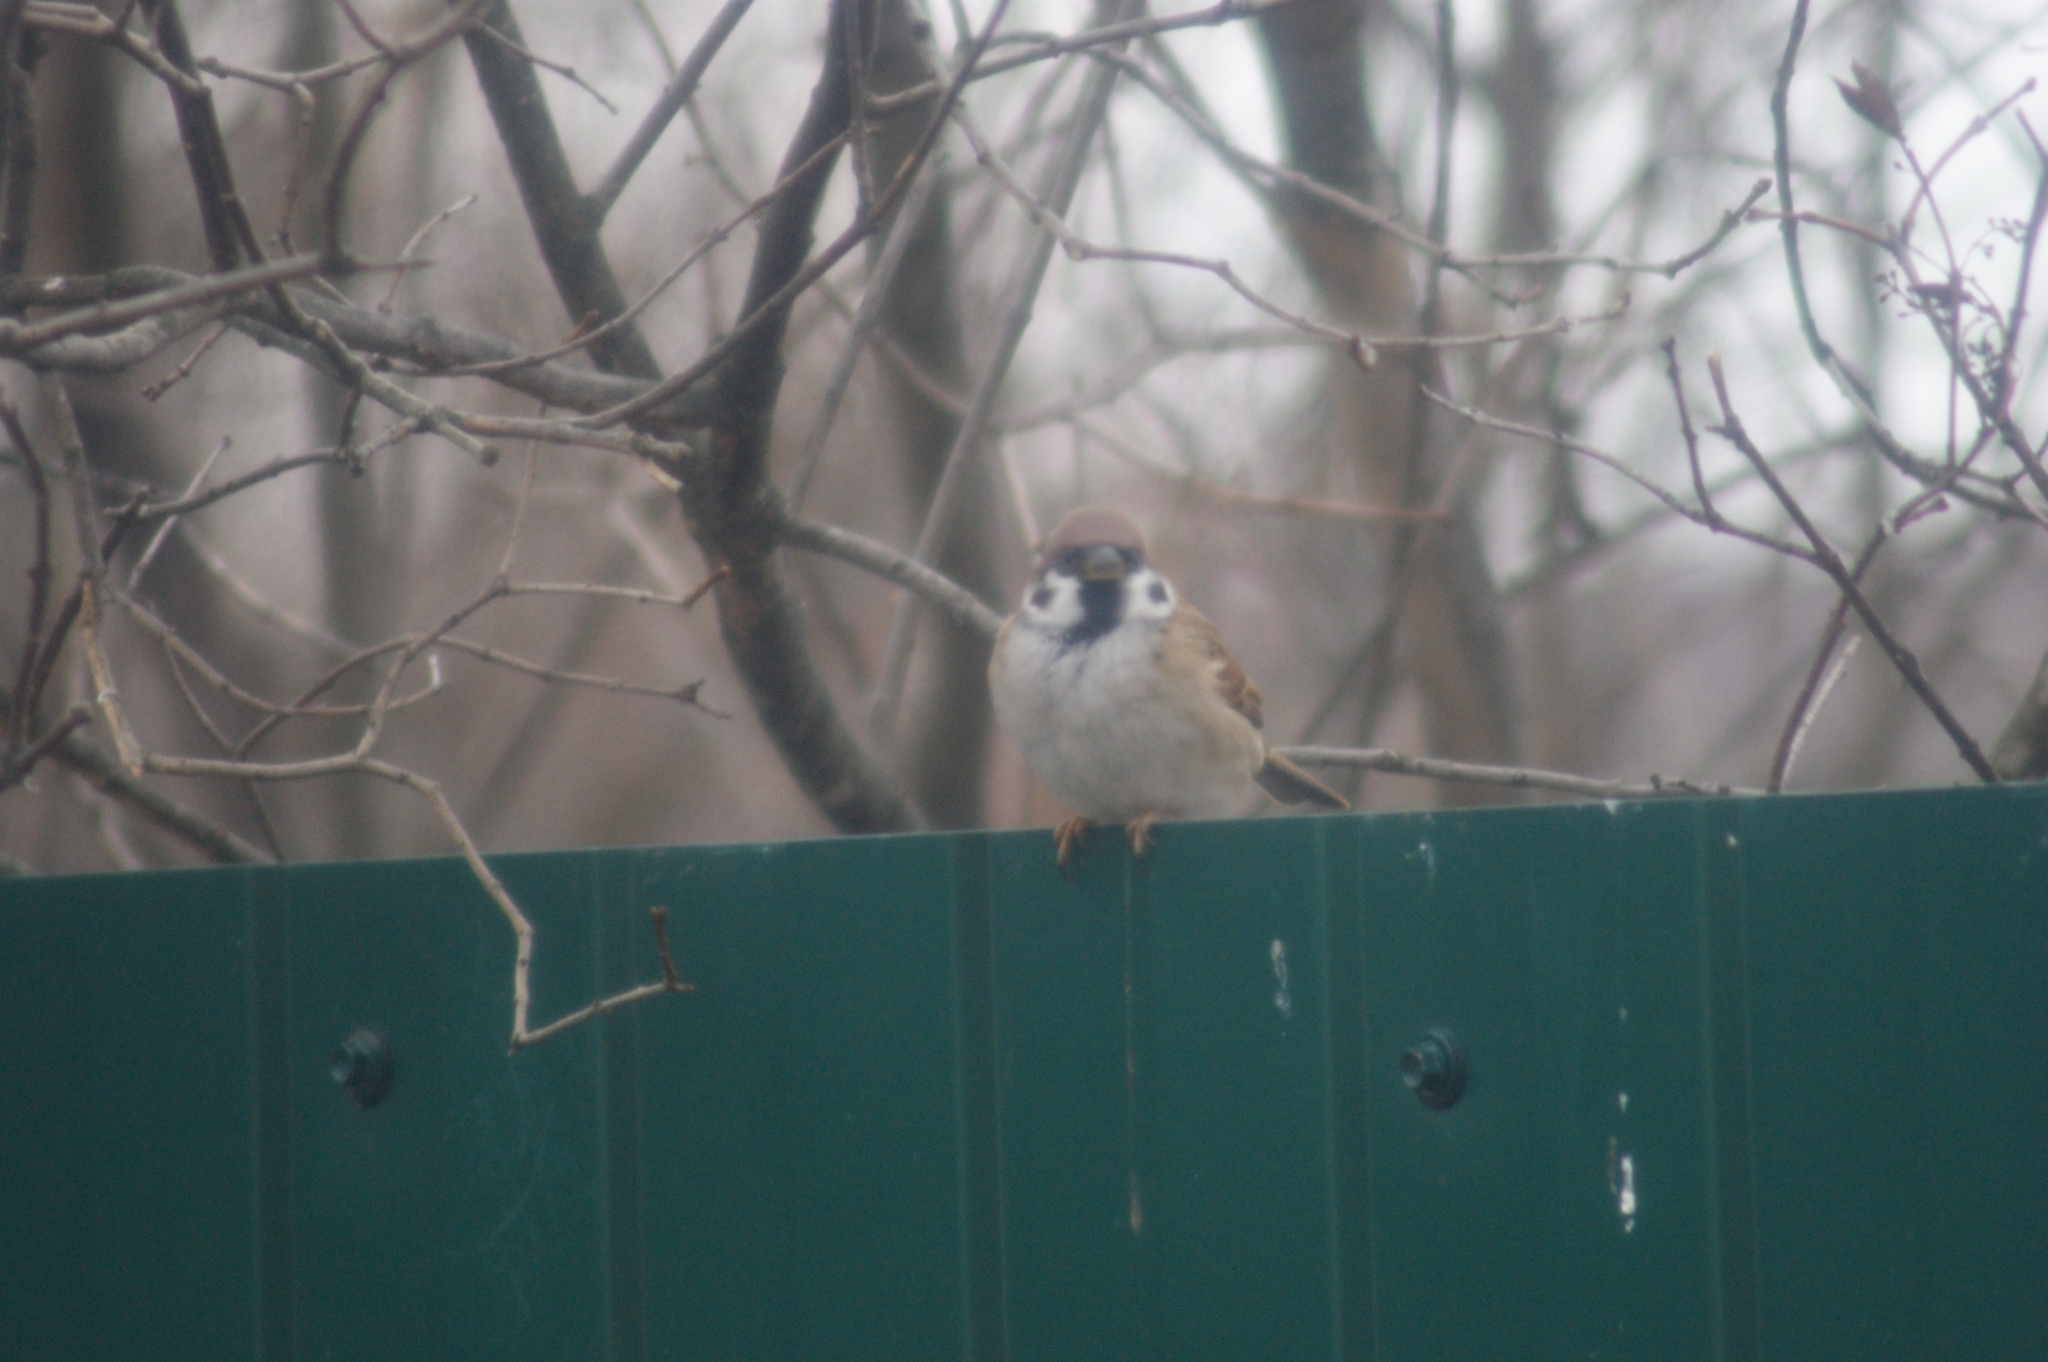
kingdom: Animalia
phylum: Chordata
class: Aves
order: Passeriformes
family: Passeridae
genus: Passer
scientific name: Passer montanus
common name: Eurasian tree sparrow
